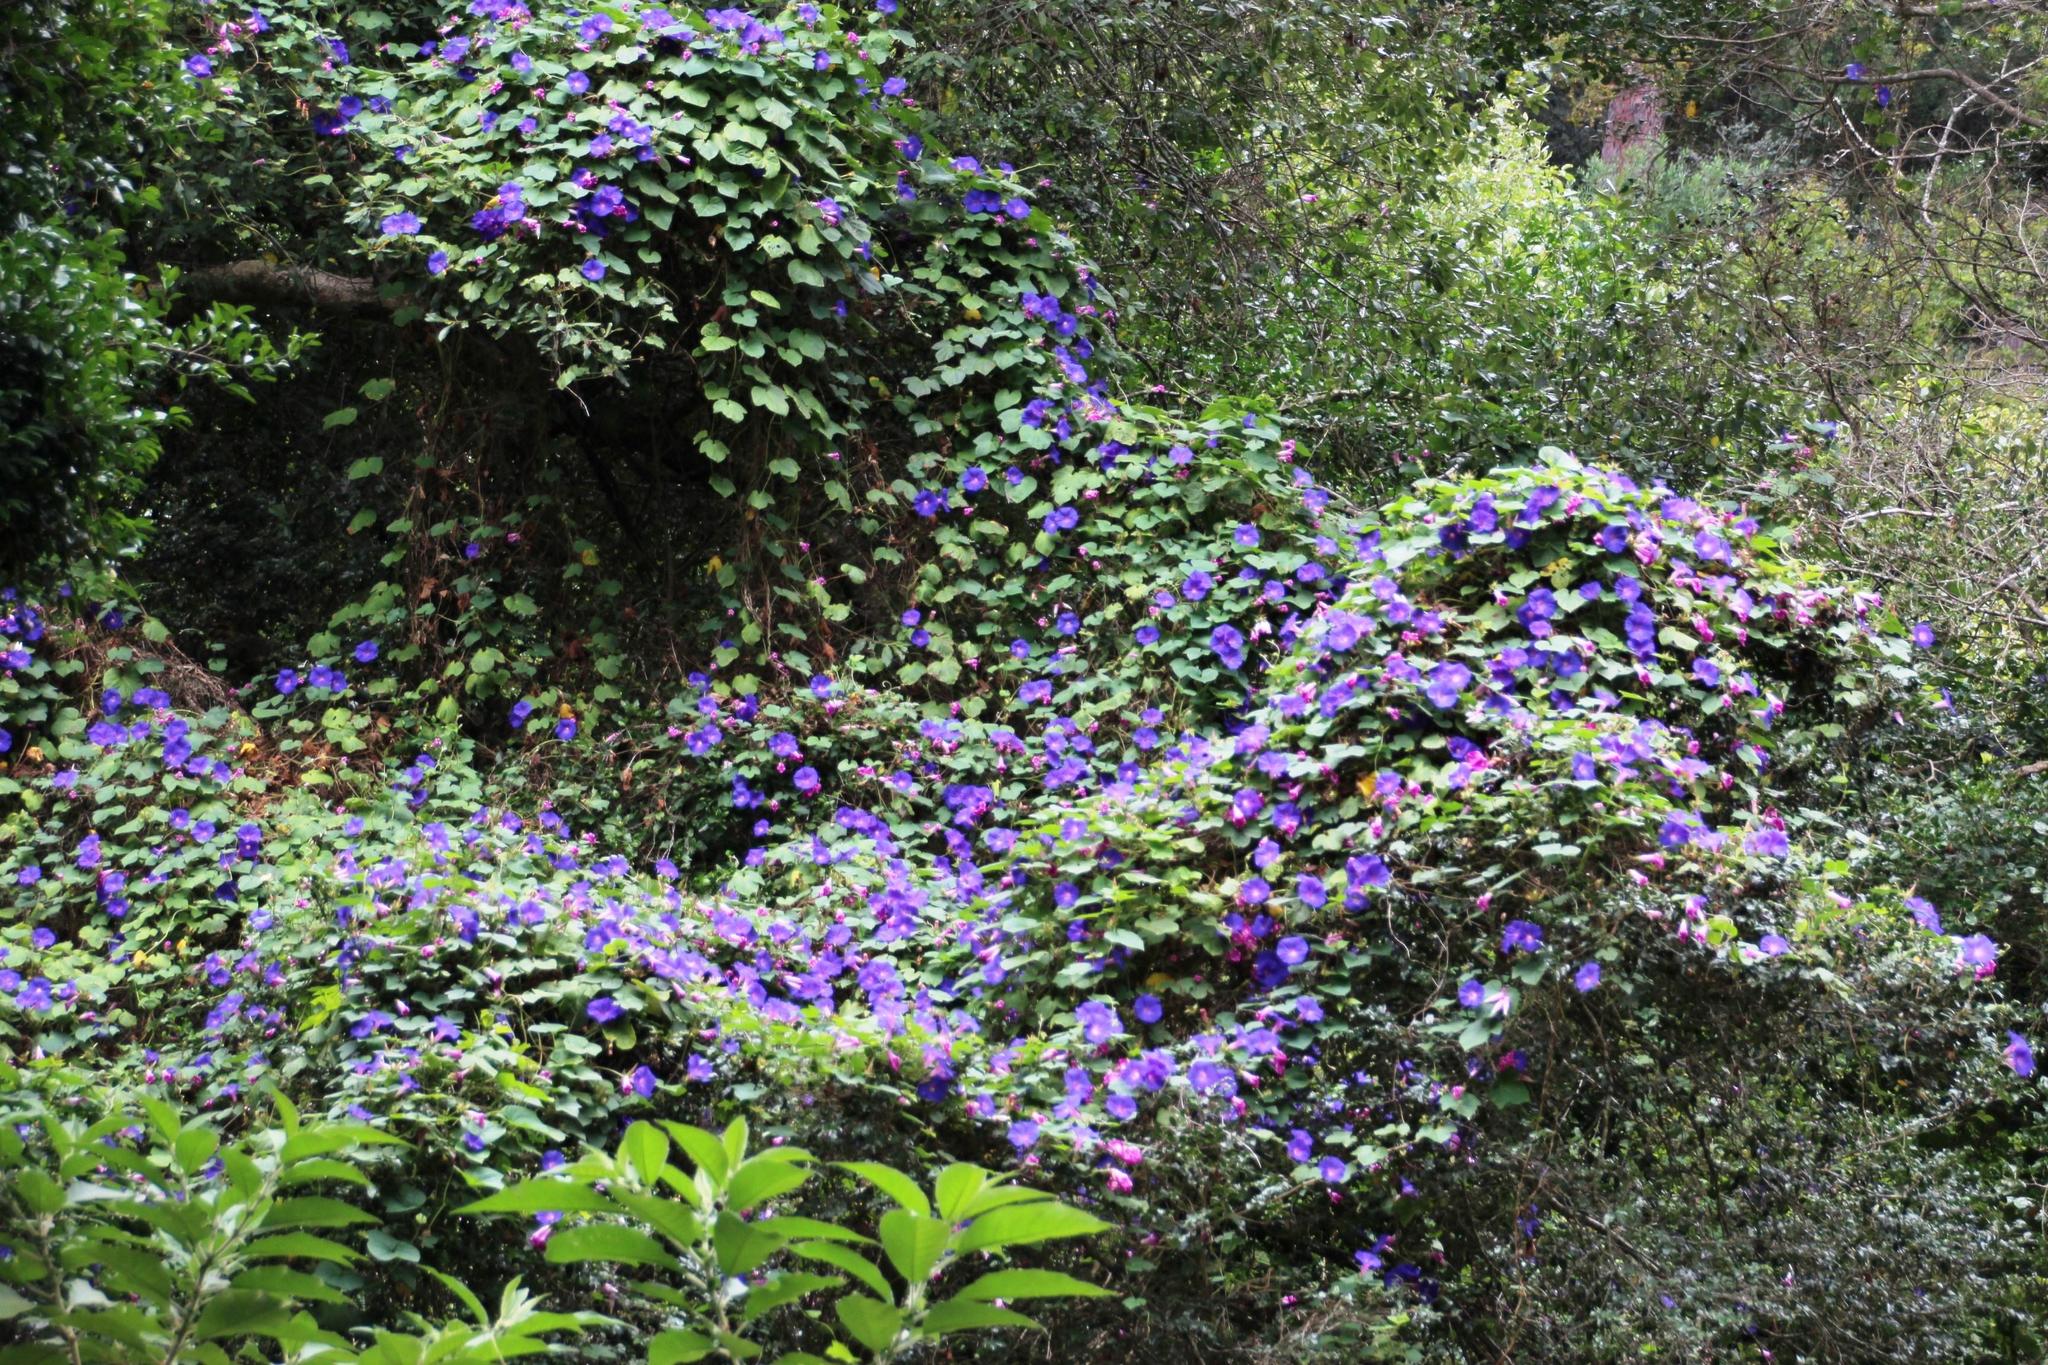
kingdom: Plantae
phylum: Tracheophyta
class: Magnoliopsida
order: Solanales
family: Convolvulaceae
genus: Ipomoea
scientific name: Ipomoea purpurea
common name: Common morning-glory
